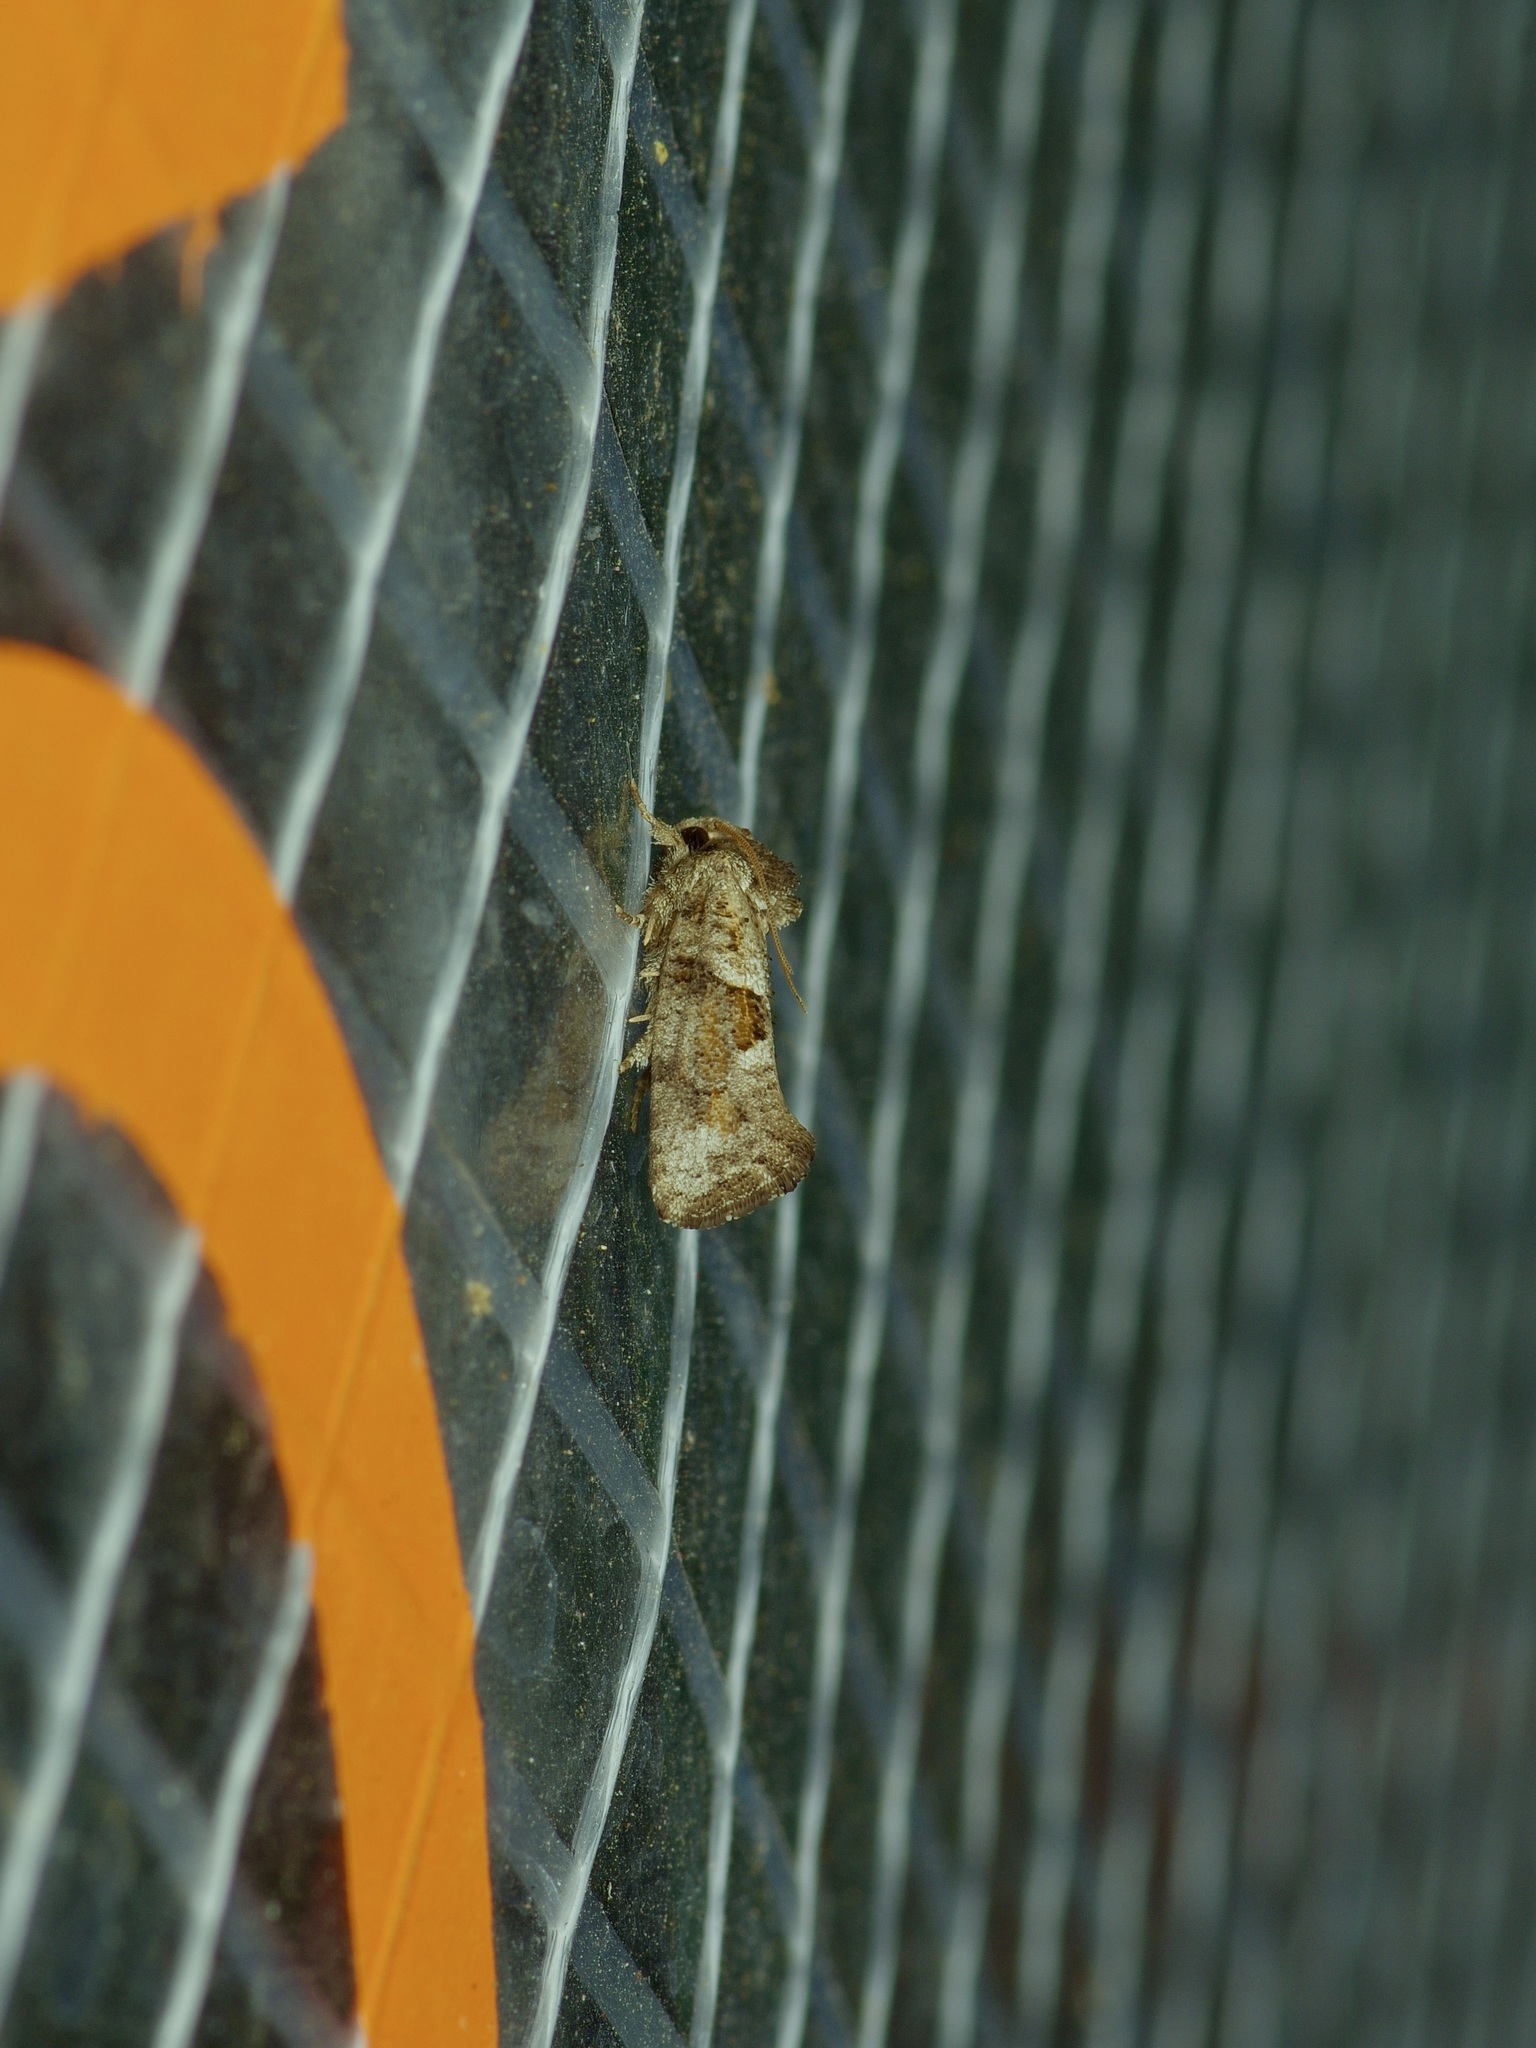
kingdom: Animalia
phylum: Arthropoda
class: Insecta
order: Lepidoptera
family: Tineidae
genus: Acrolophus
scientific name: Acrolophus piger
